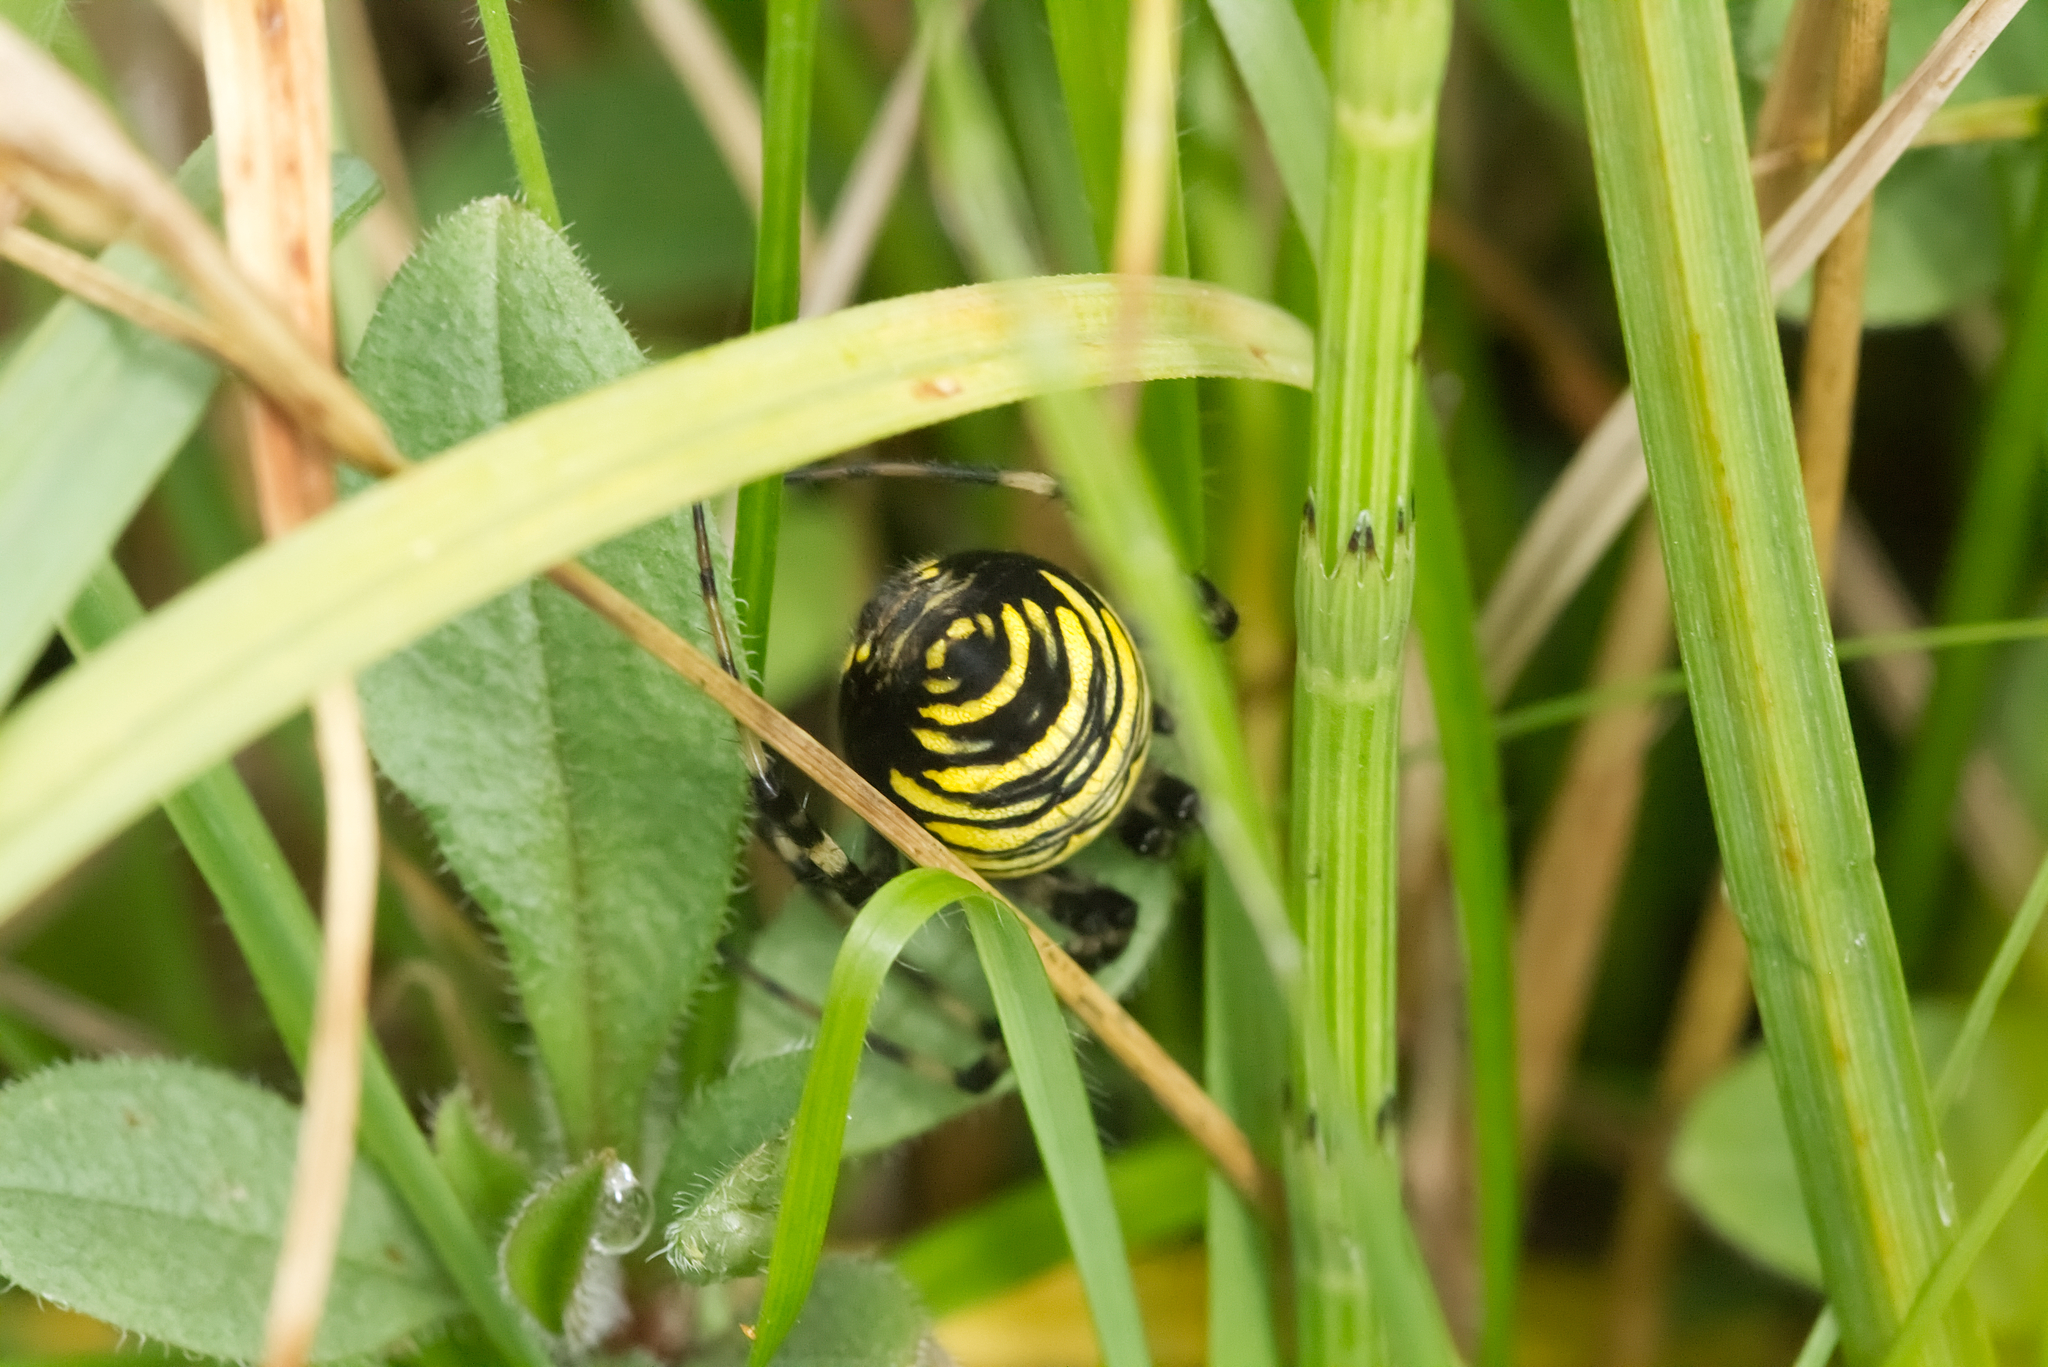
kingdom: Animalia
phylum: Arthropoda
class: Arachnida
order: Araneae
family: Araneidae
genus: Argiope
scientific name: Argiope bruennichi
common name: Wasp spider
